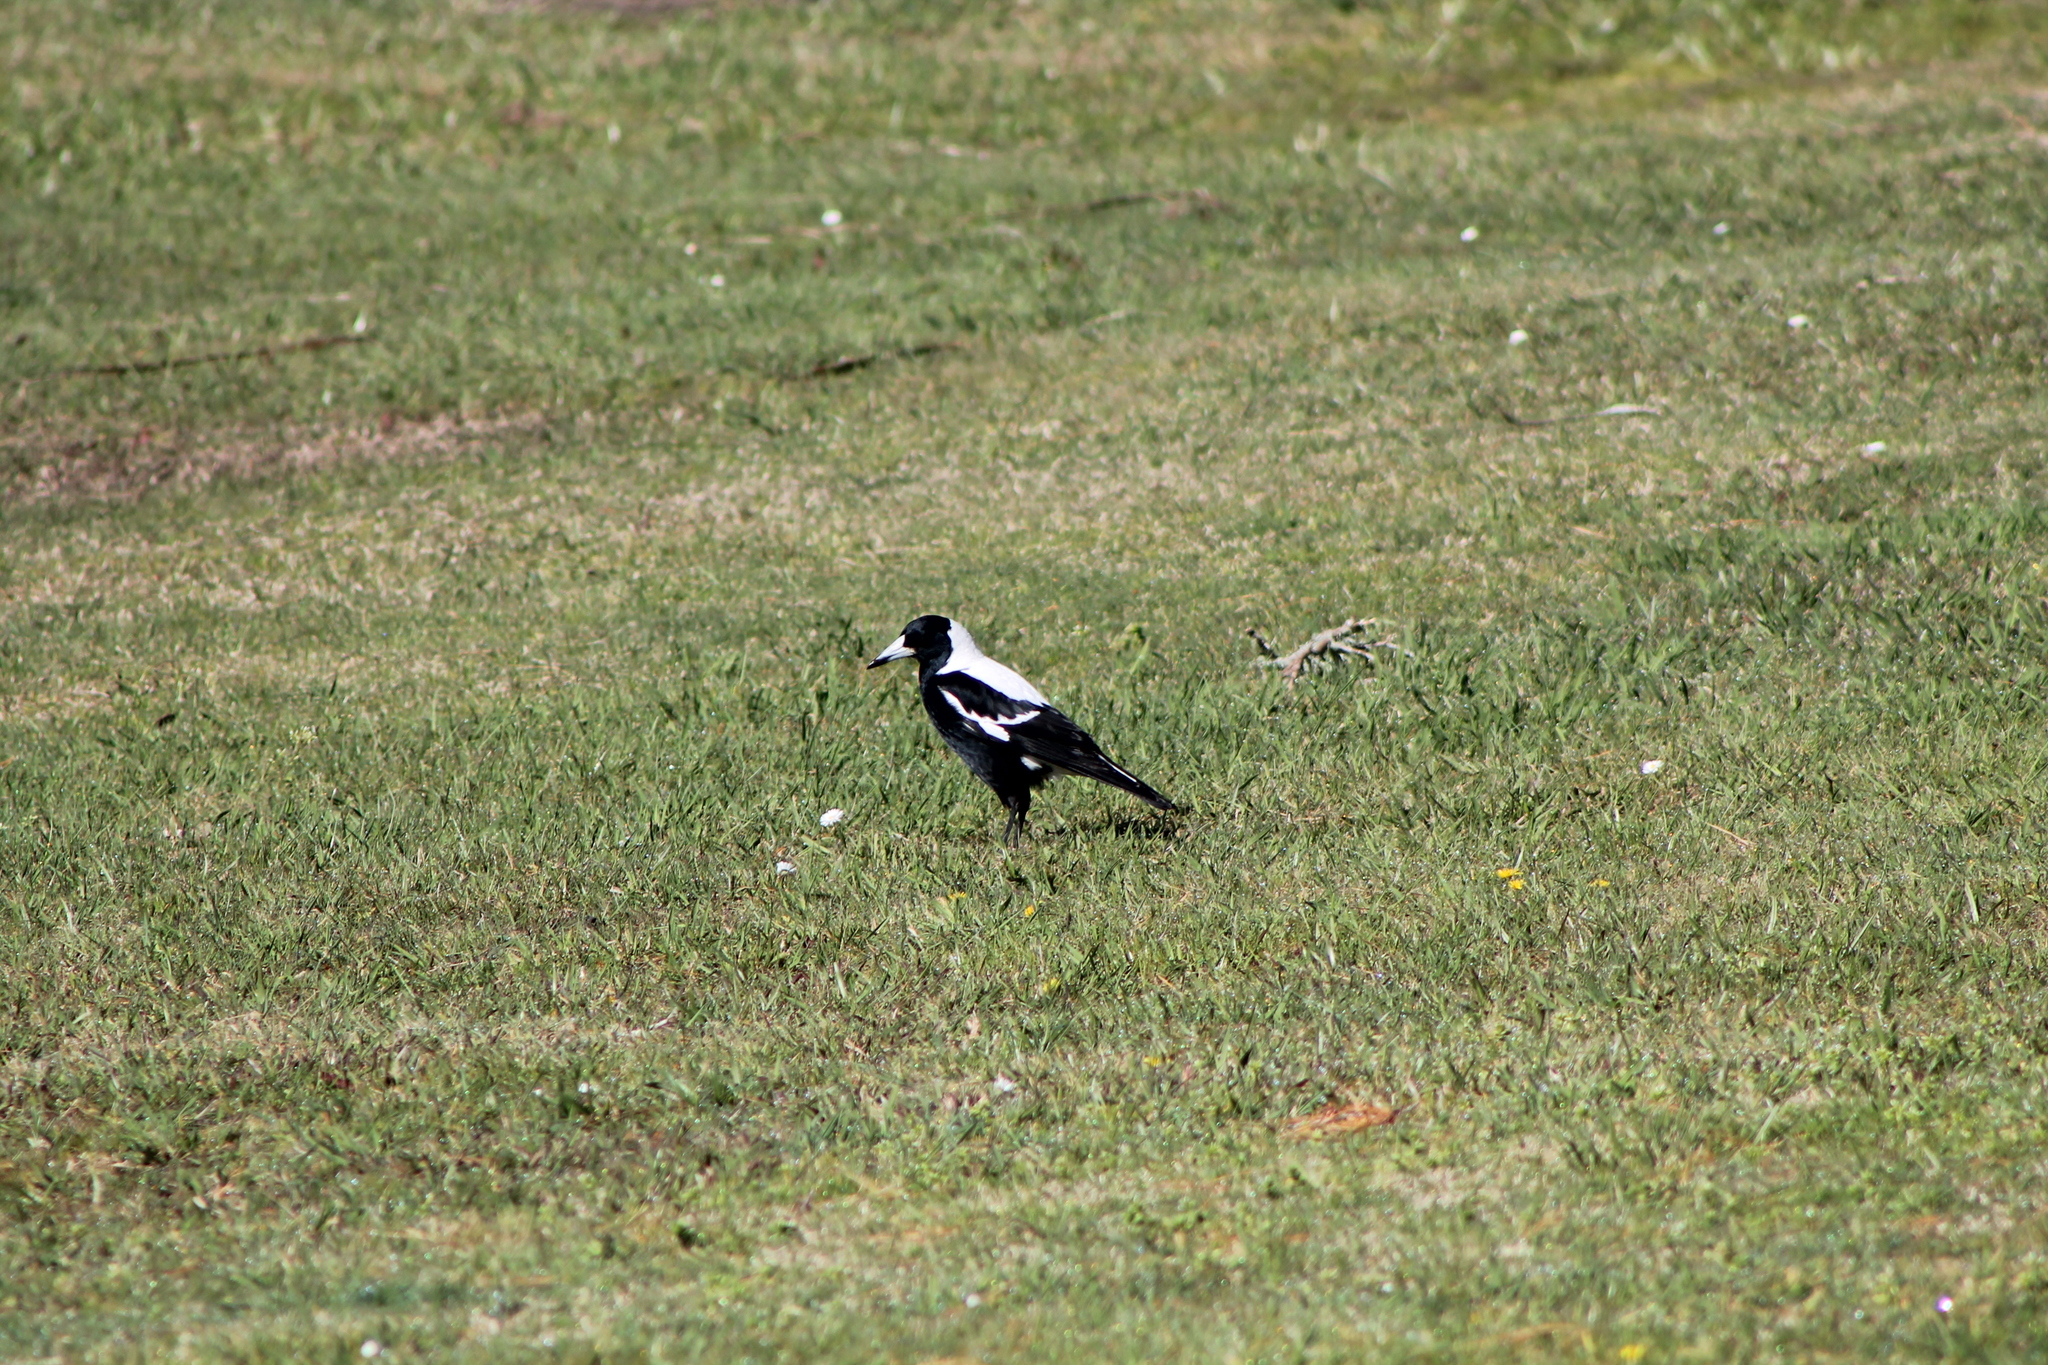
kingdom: Animalia
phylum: Chordata
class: Aves
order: Passeriformes
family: Cracticidae
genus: Gymnorhina
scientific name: Gymnorhina tibicen
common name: Australian magpie
